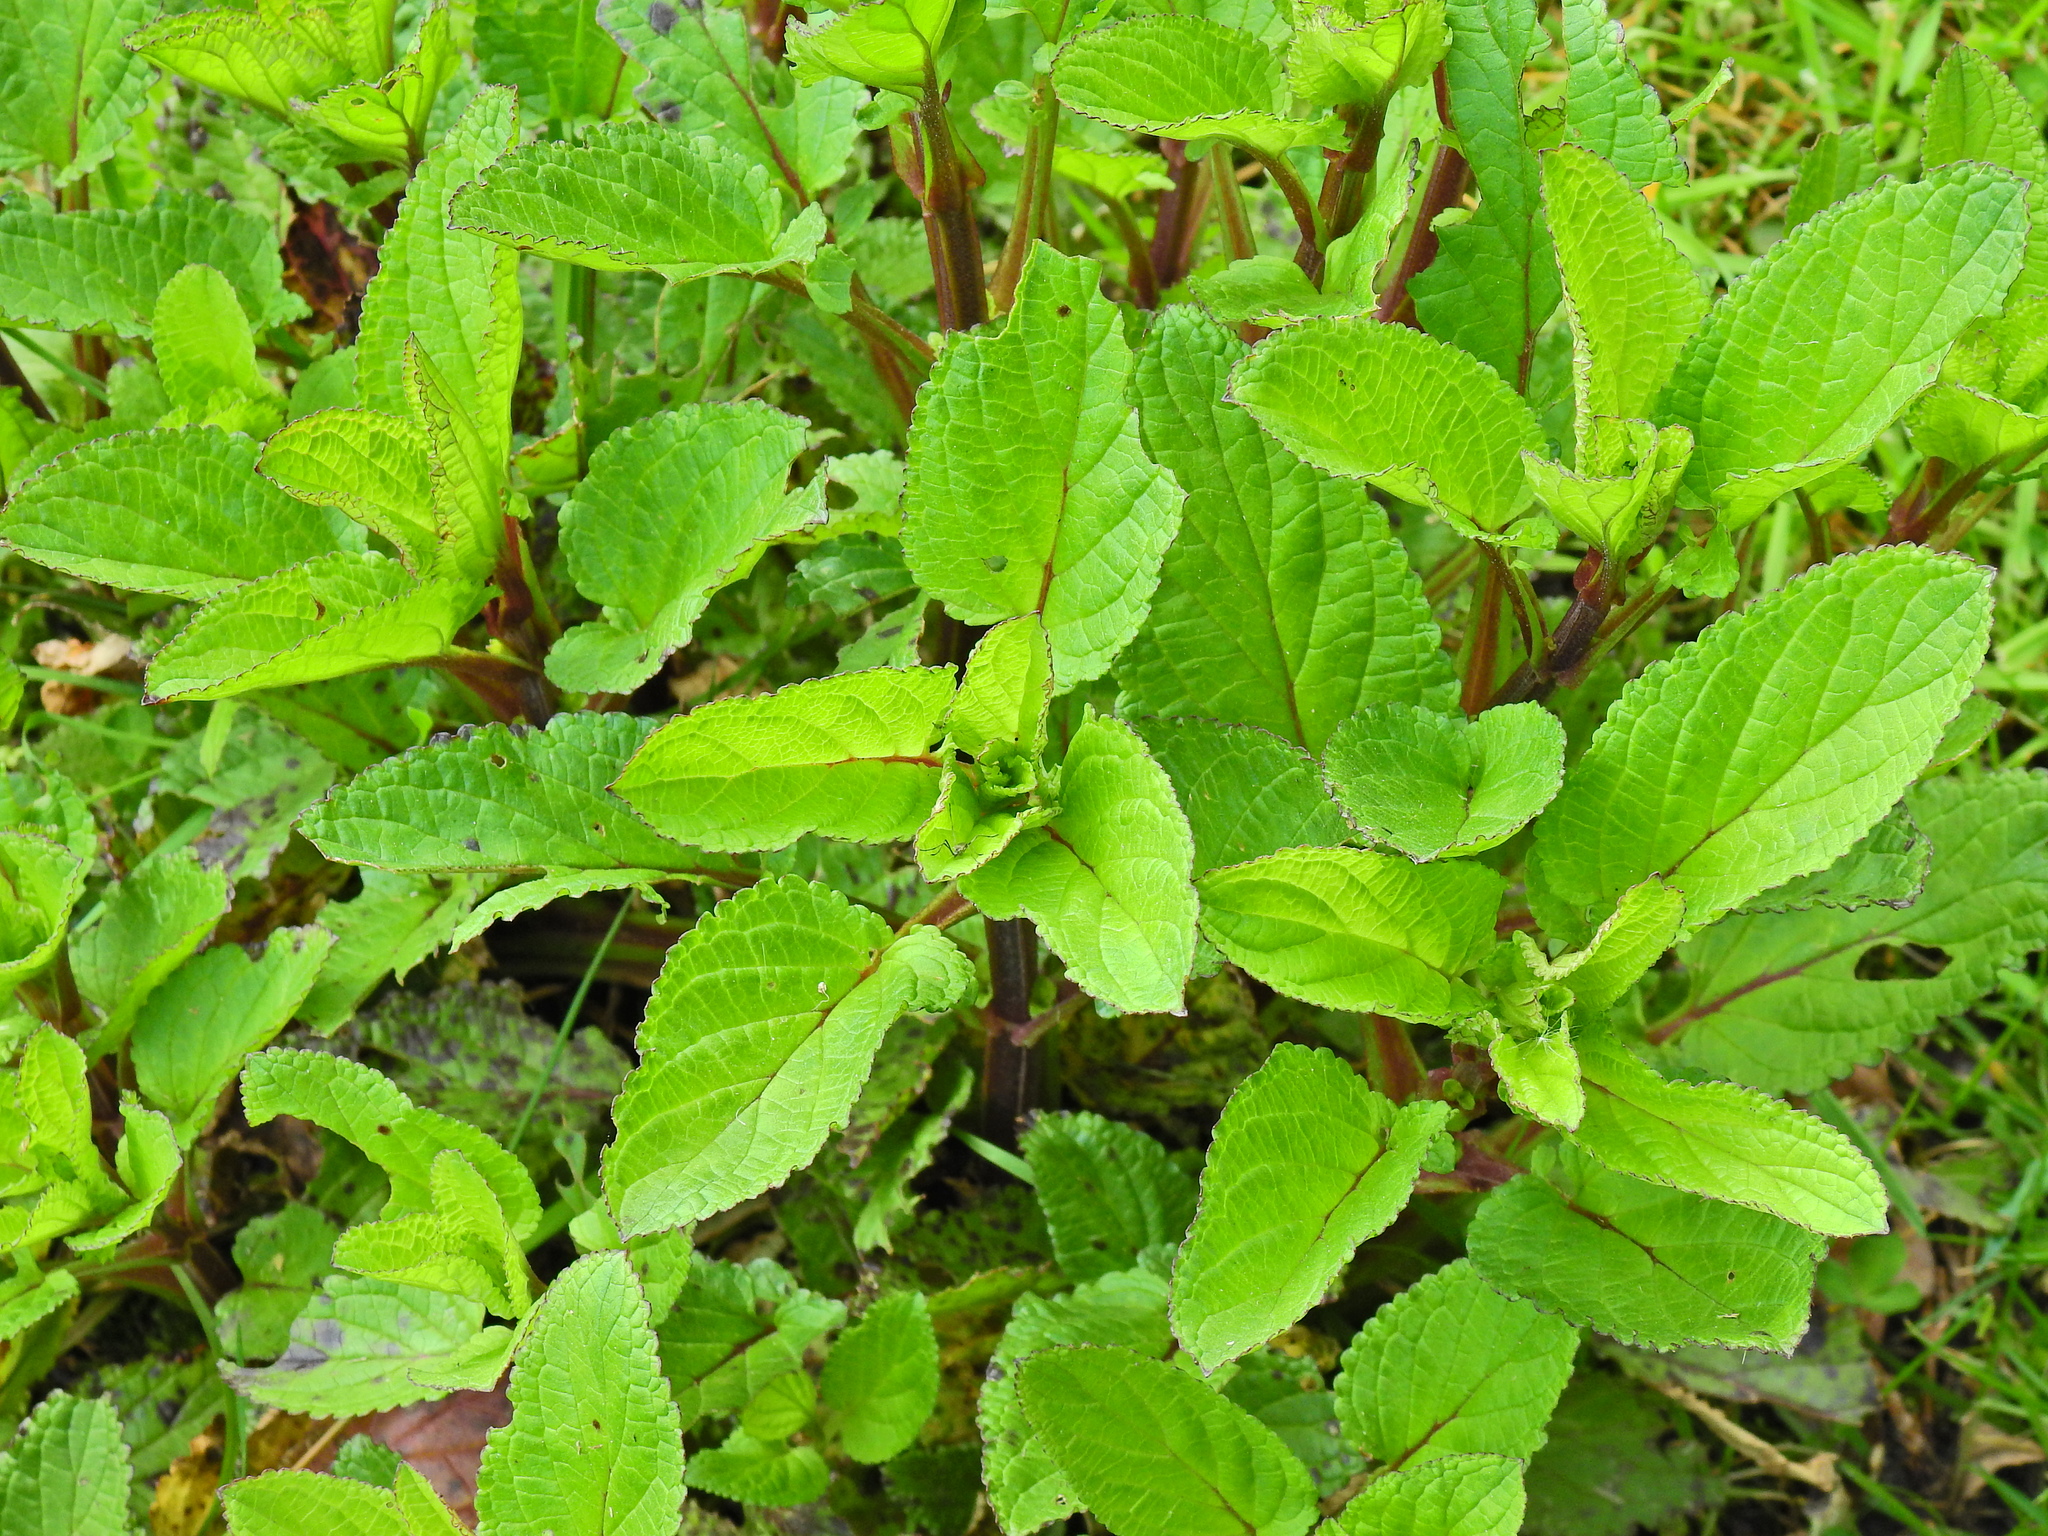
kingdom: Plantae
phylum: Tracheophyta
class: Magnoliopsida
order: Lamiales
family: Scrophulariaceae
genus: Scrophularia
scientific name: Scrophularia auriculata
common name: Water betony
